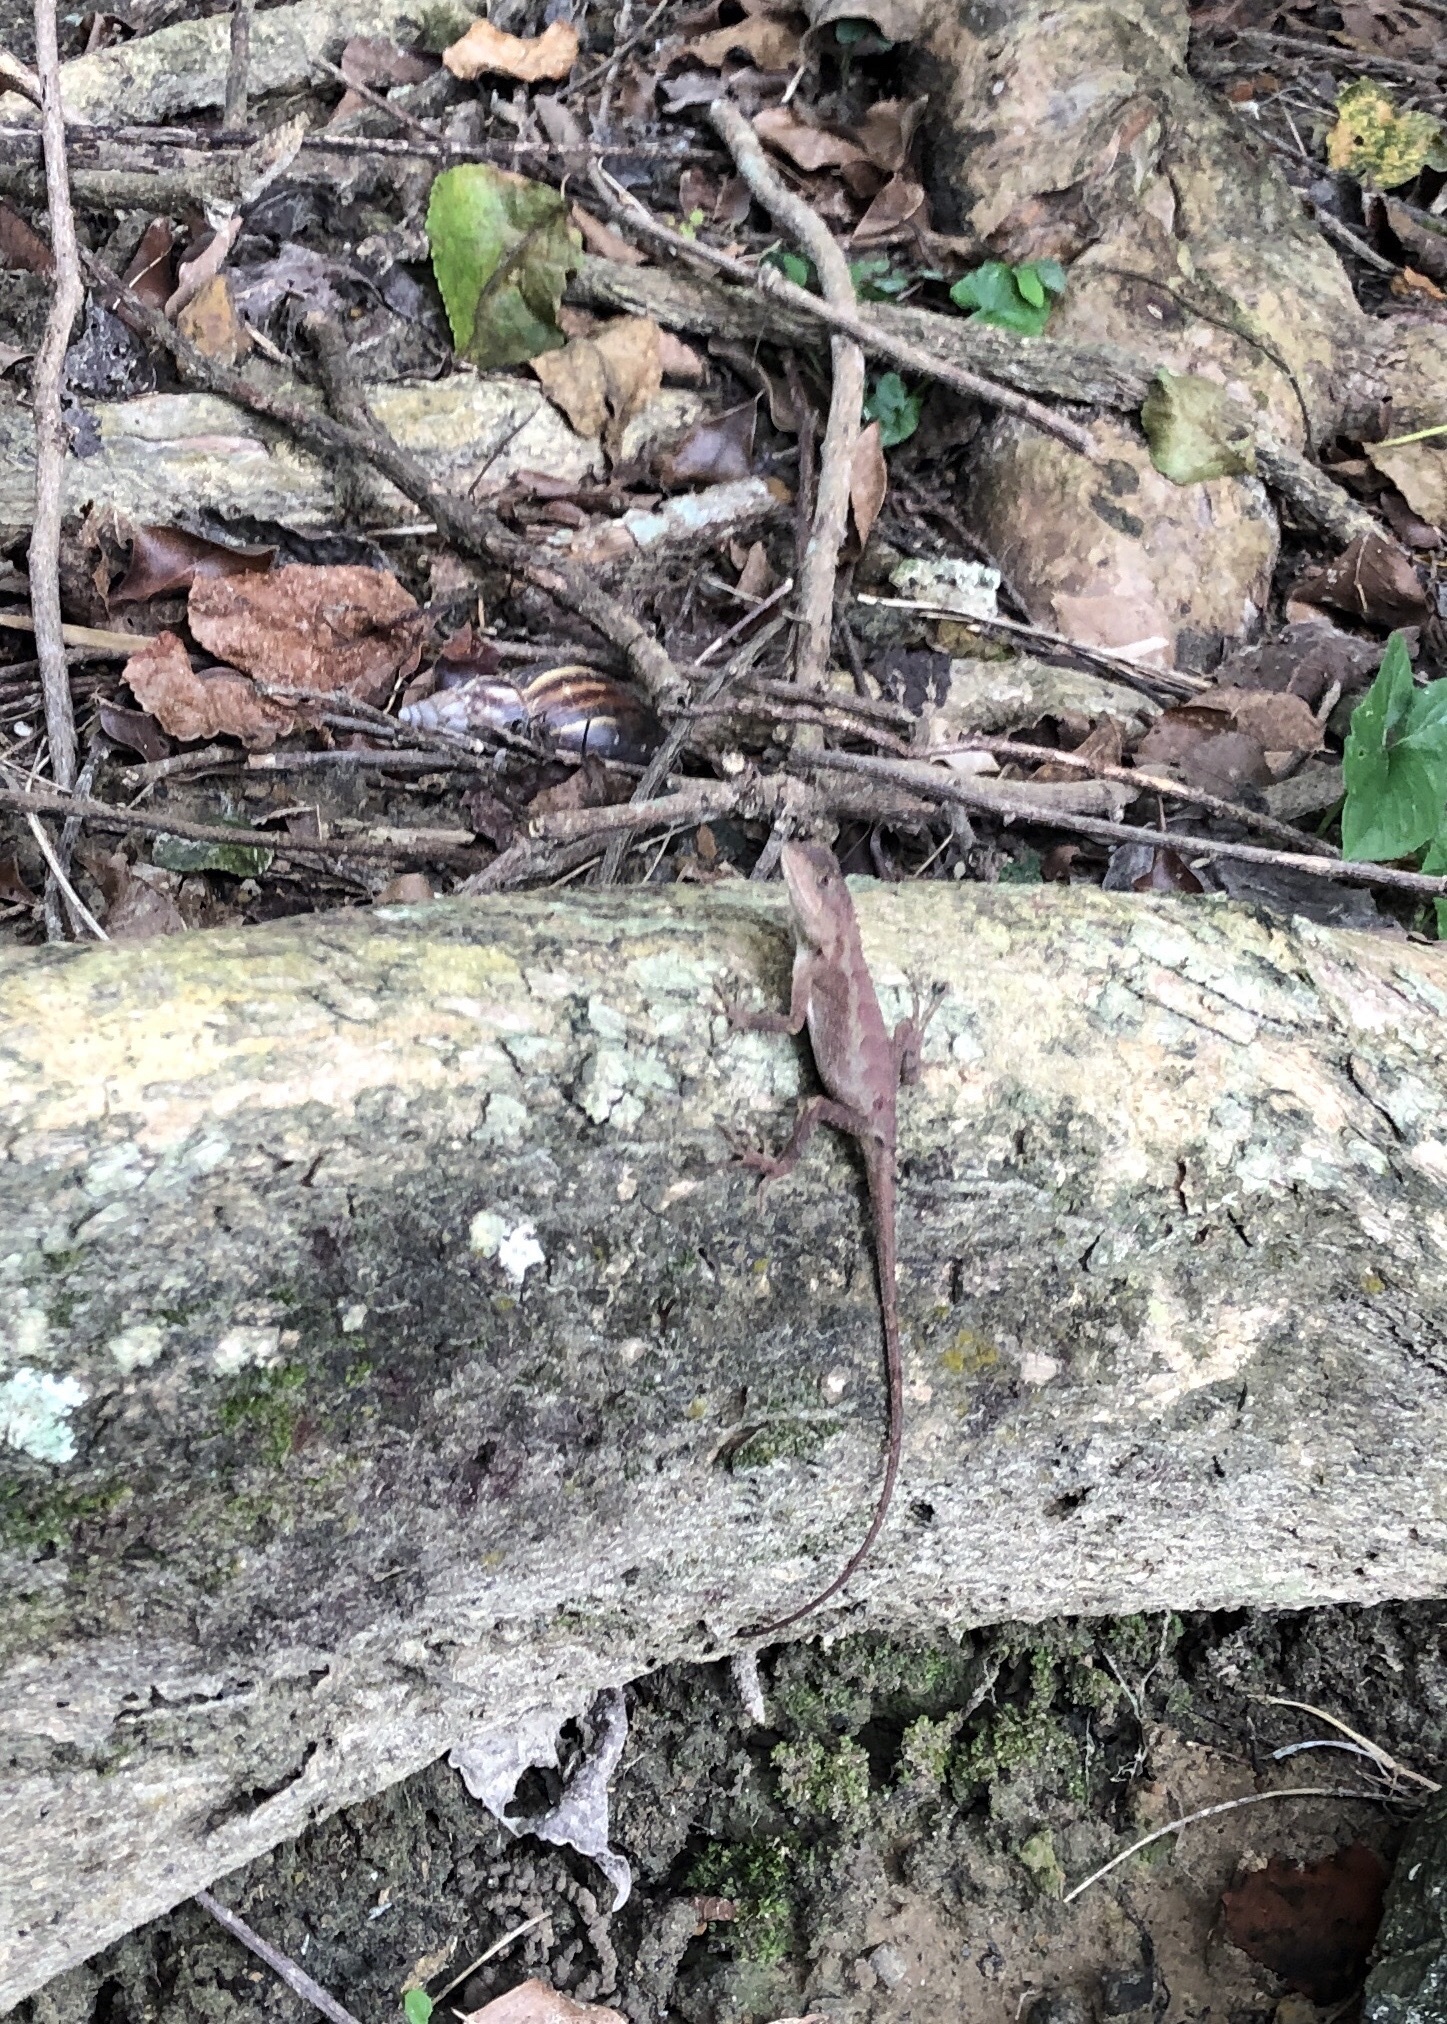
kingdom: Animalia
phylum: Chordata
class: Squamata
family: Agamidae
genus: Diploderma
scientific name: Diploderma swinhonis
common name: Taiwan japalure
